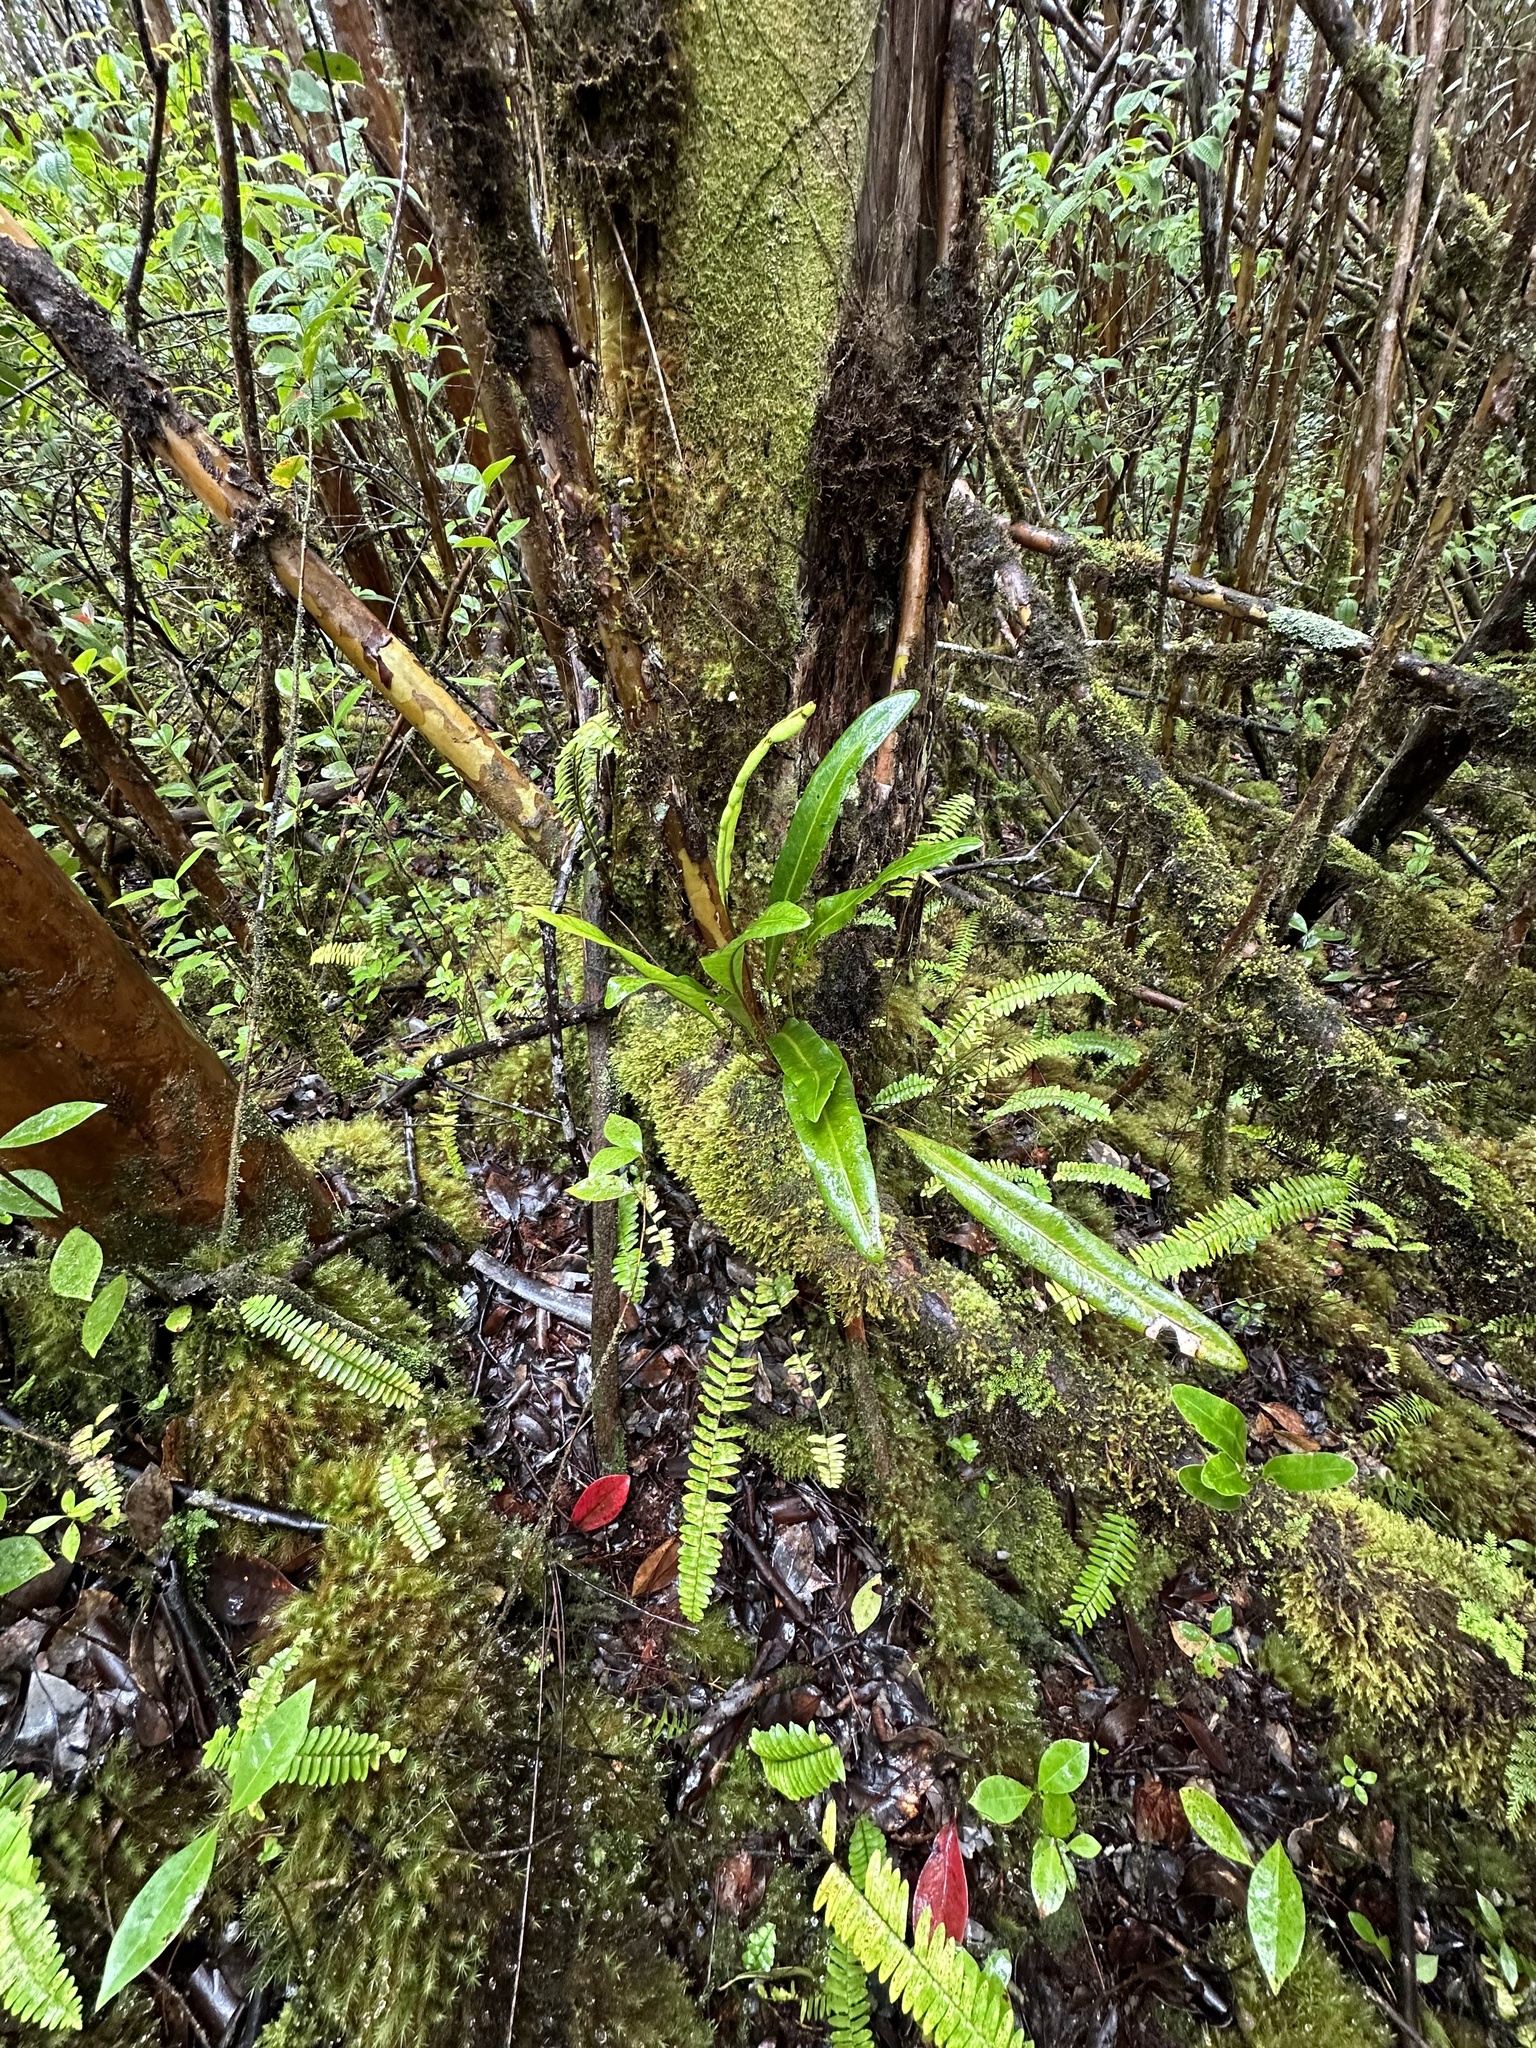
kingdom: Plantae
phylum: Tracheophyta
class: Polypodiopsida
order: Polypodiales
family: Dryopteridaceae
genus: Elaphoglossum
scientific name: Elaphoglossum crassifolium
